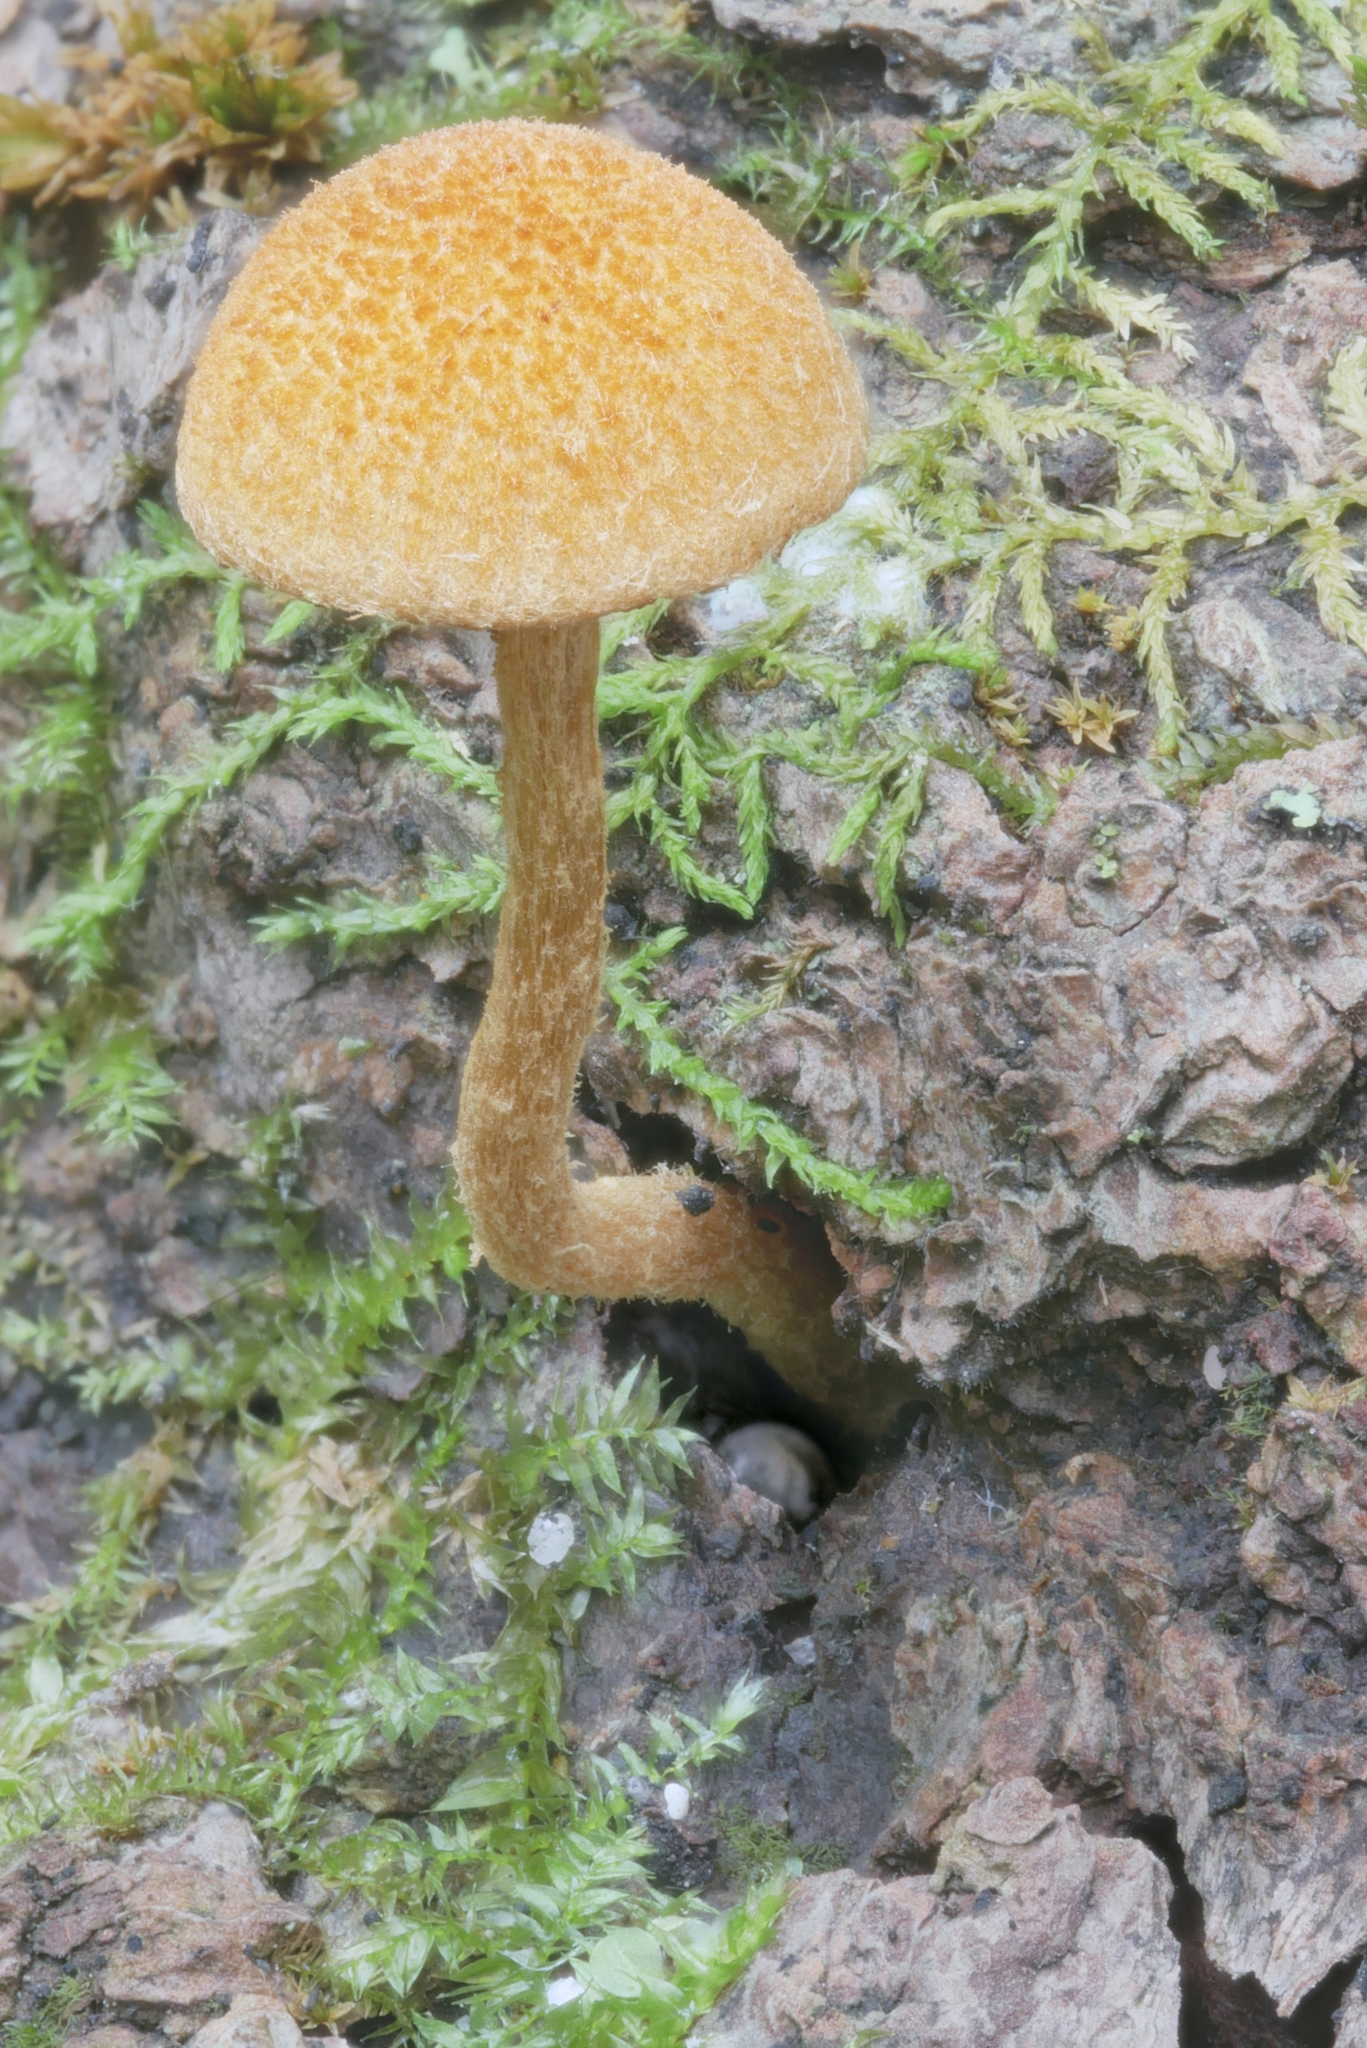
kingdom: Fungi
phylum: Basidiomycota
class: Agaricomycetes
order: Agaricales
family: Tubariaceae
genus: Phaeomarasmius
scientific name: Phaeomarasmius proximans
